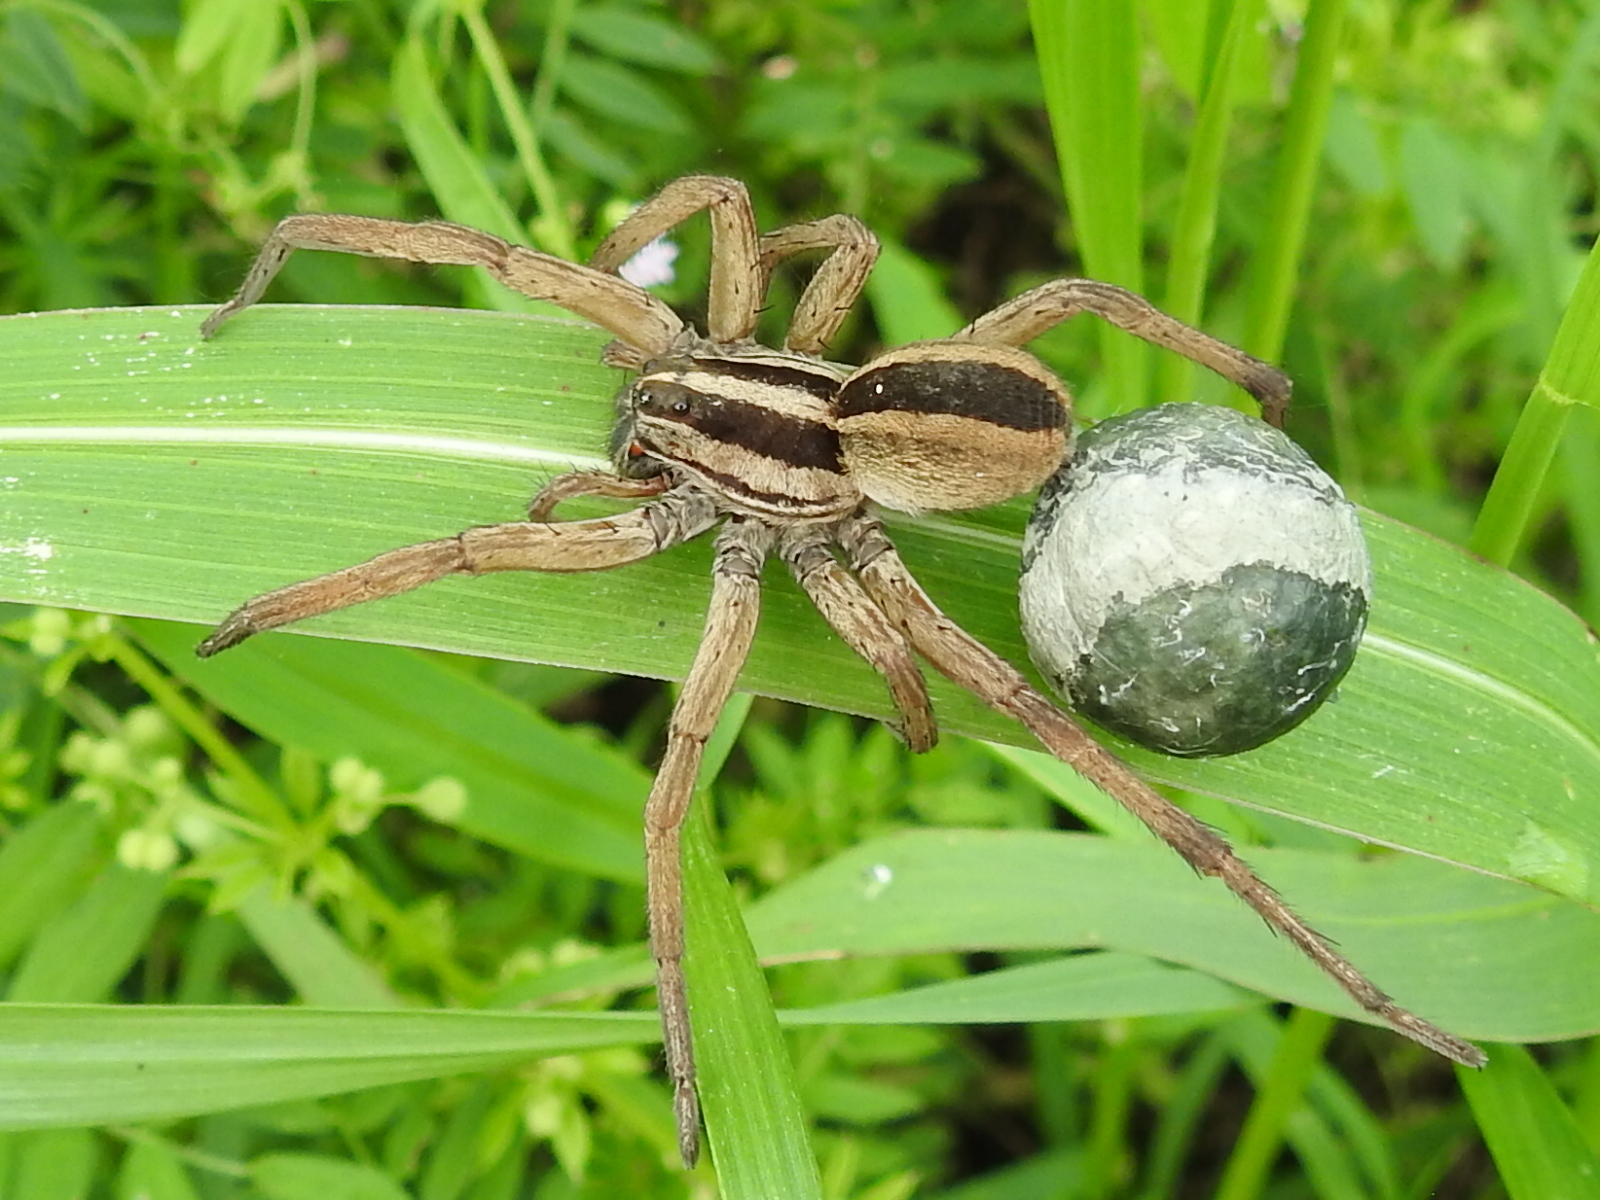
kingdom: Animalia
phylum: Arthropoda
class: Arachnida
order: Araneae
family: Lycosidae
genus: Rabidosa
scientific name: Rabidosa rabida
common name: Rabid wolf spider
